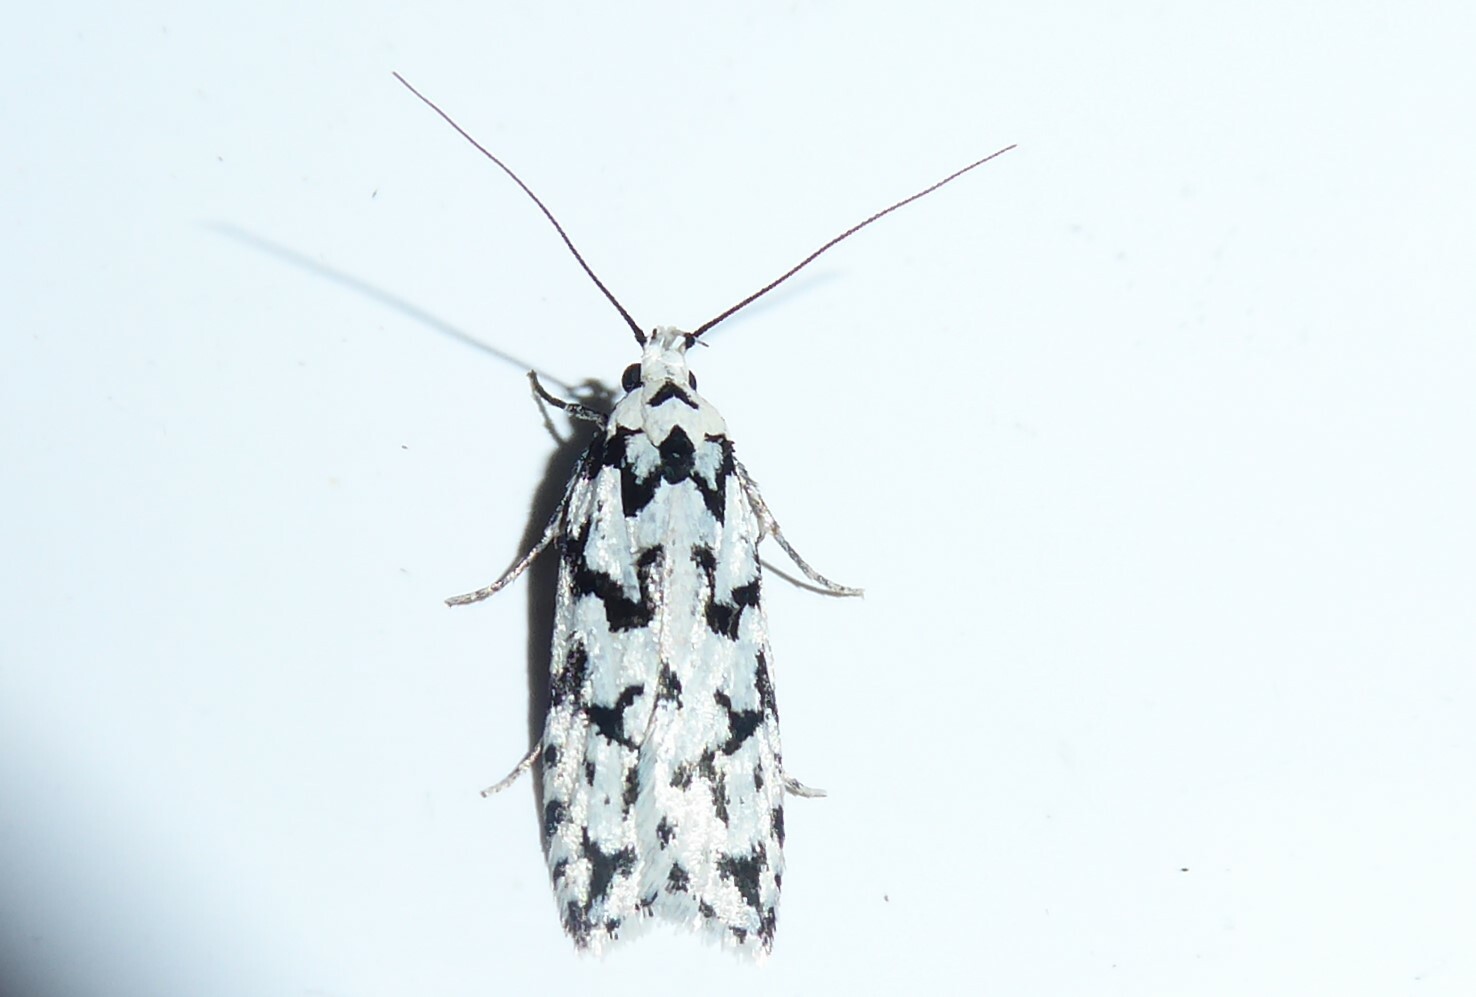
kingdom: Animalia
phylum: Arthropoda
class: Insecta
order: Lepidoptera
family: Oecophoridae
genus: Izatha
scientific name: Izatha katadiktya
